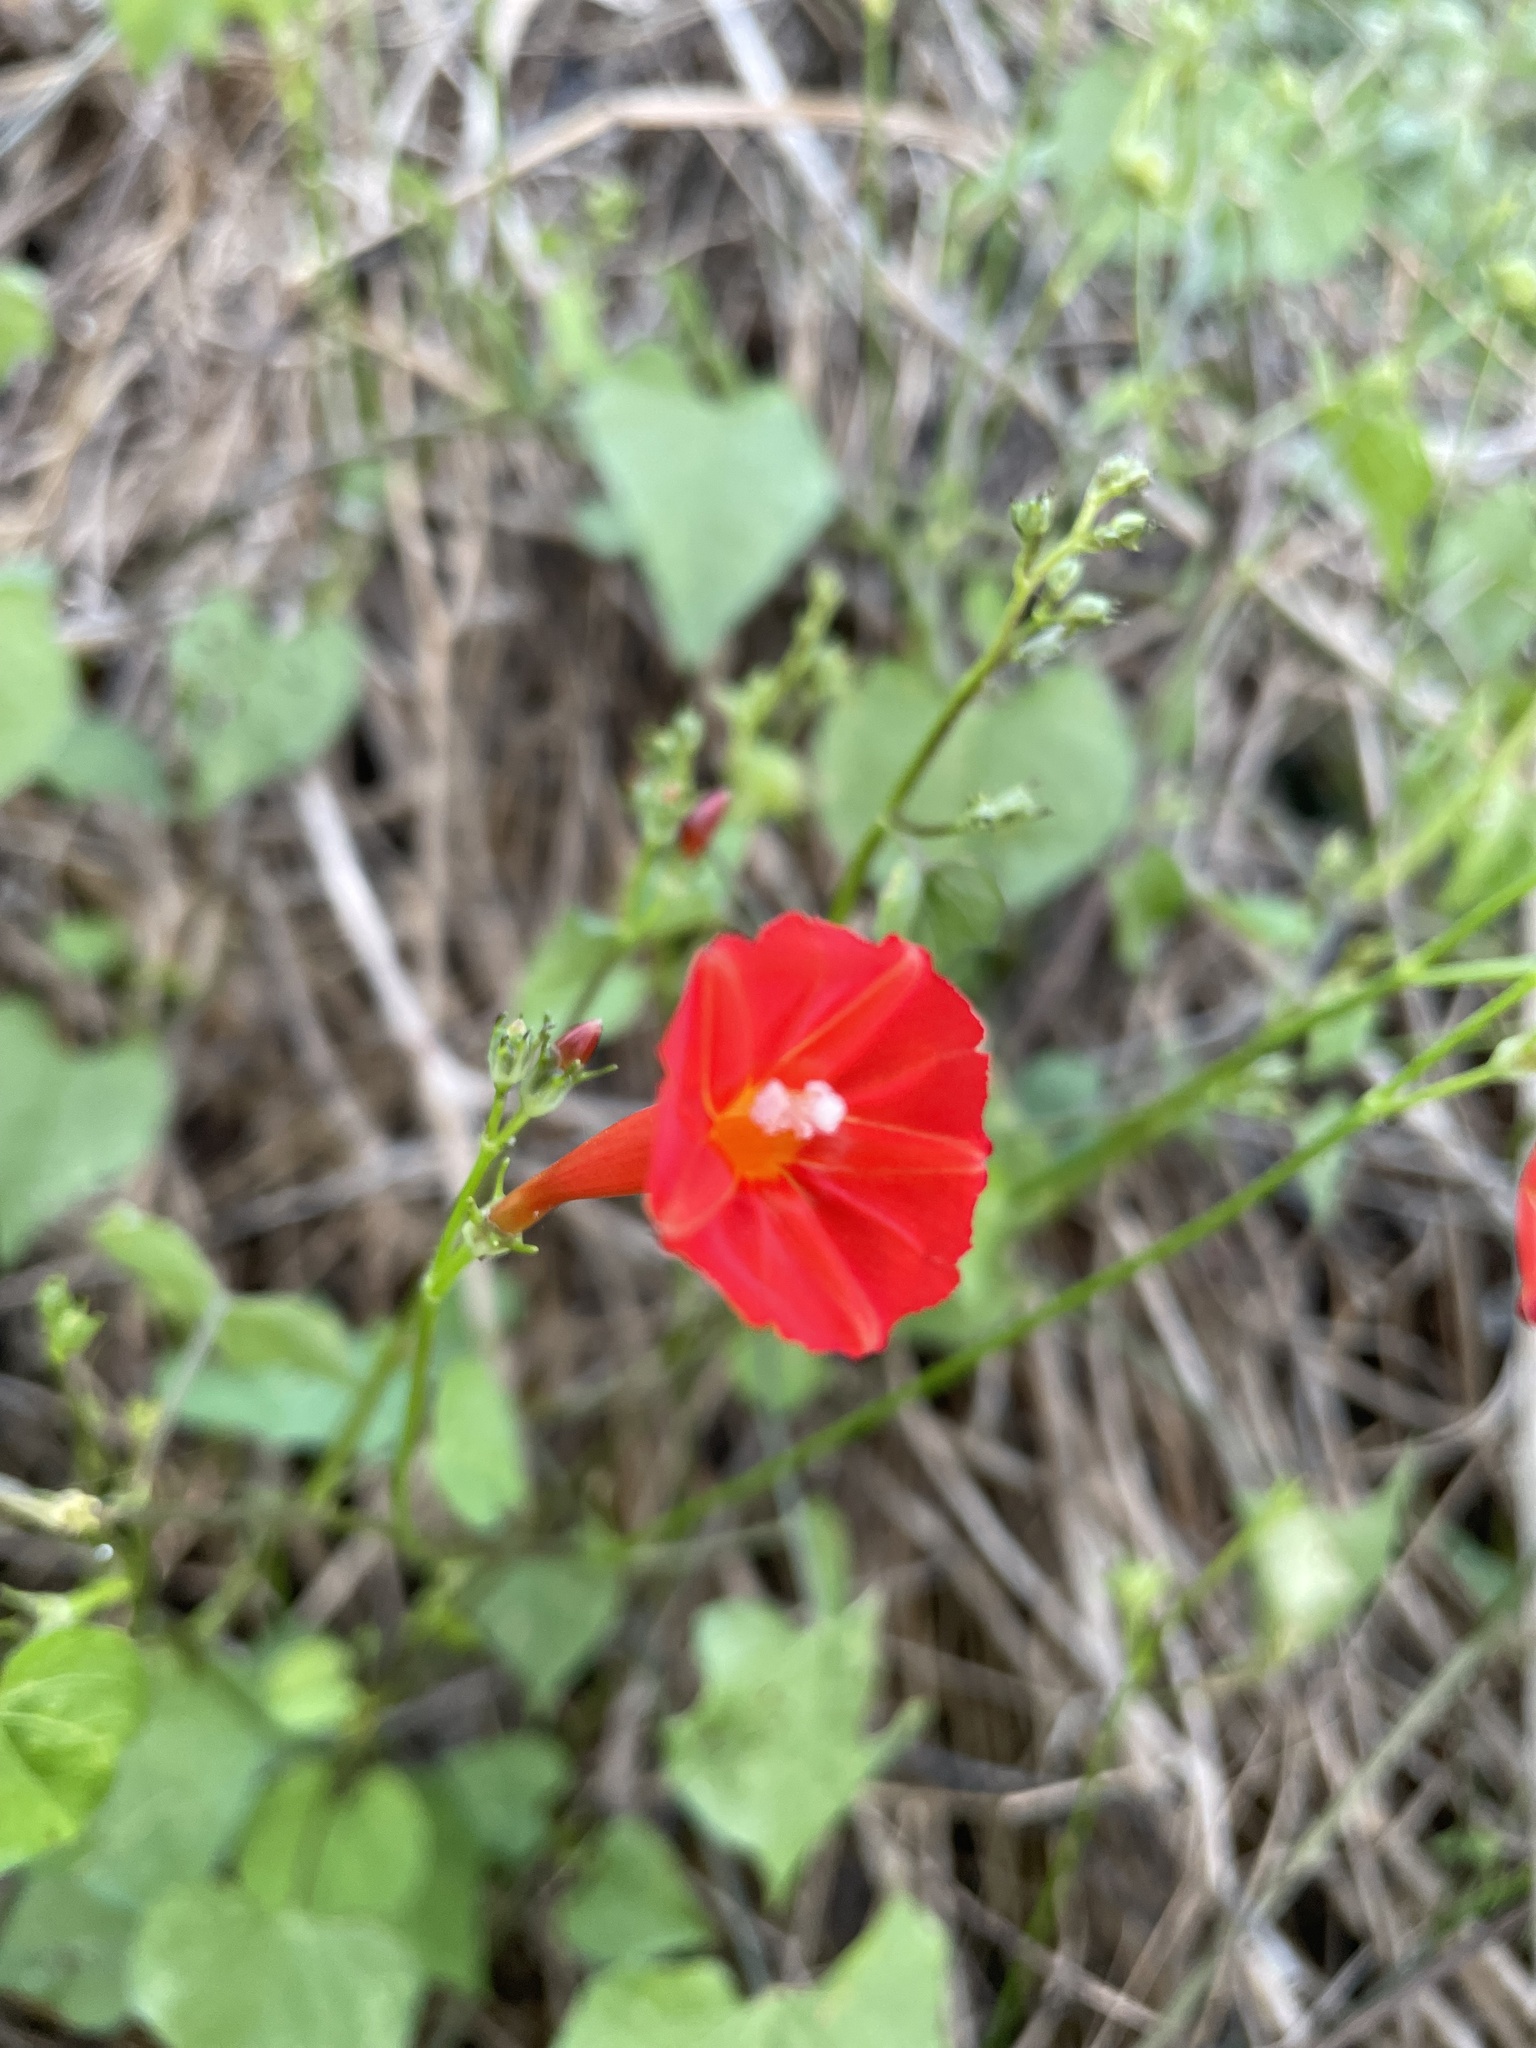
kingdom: Plantae
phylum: Tracheophyta
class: Magnoliopsida
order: Solanales
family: Convolvulaceae
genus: Ipomoea
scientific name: Ipomoea hederifolia
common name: Ivy-leaf morning-glory
